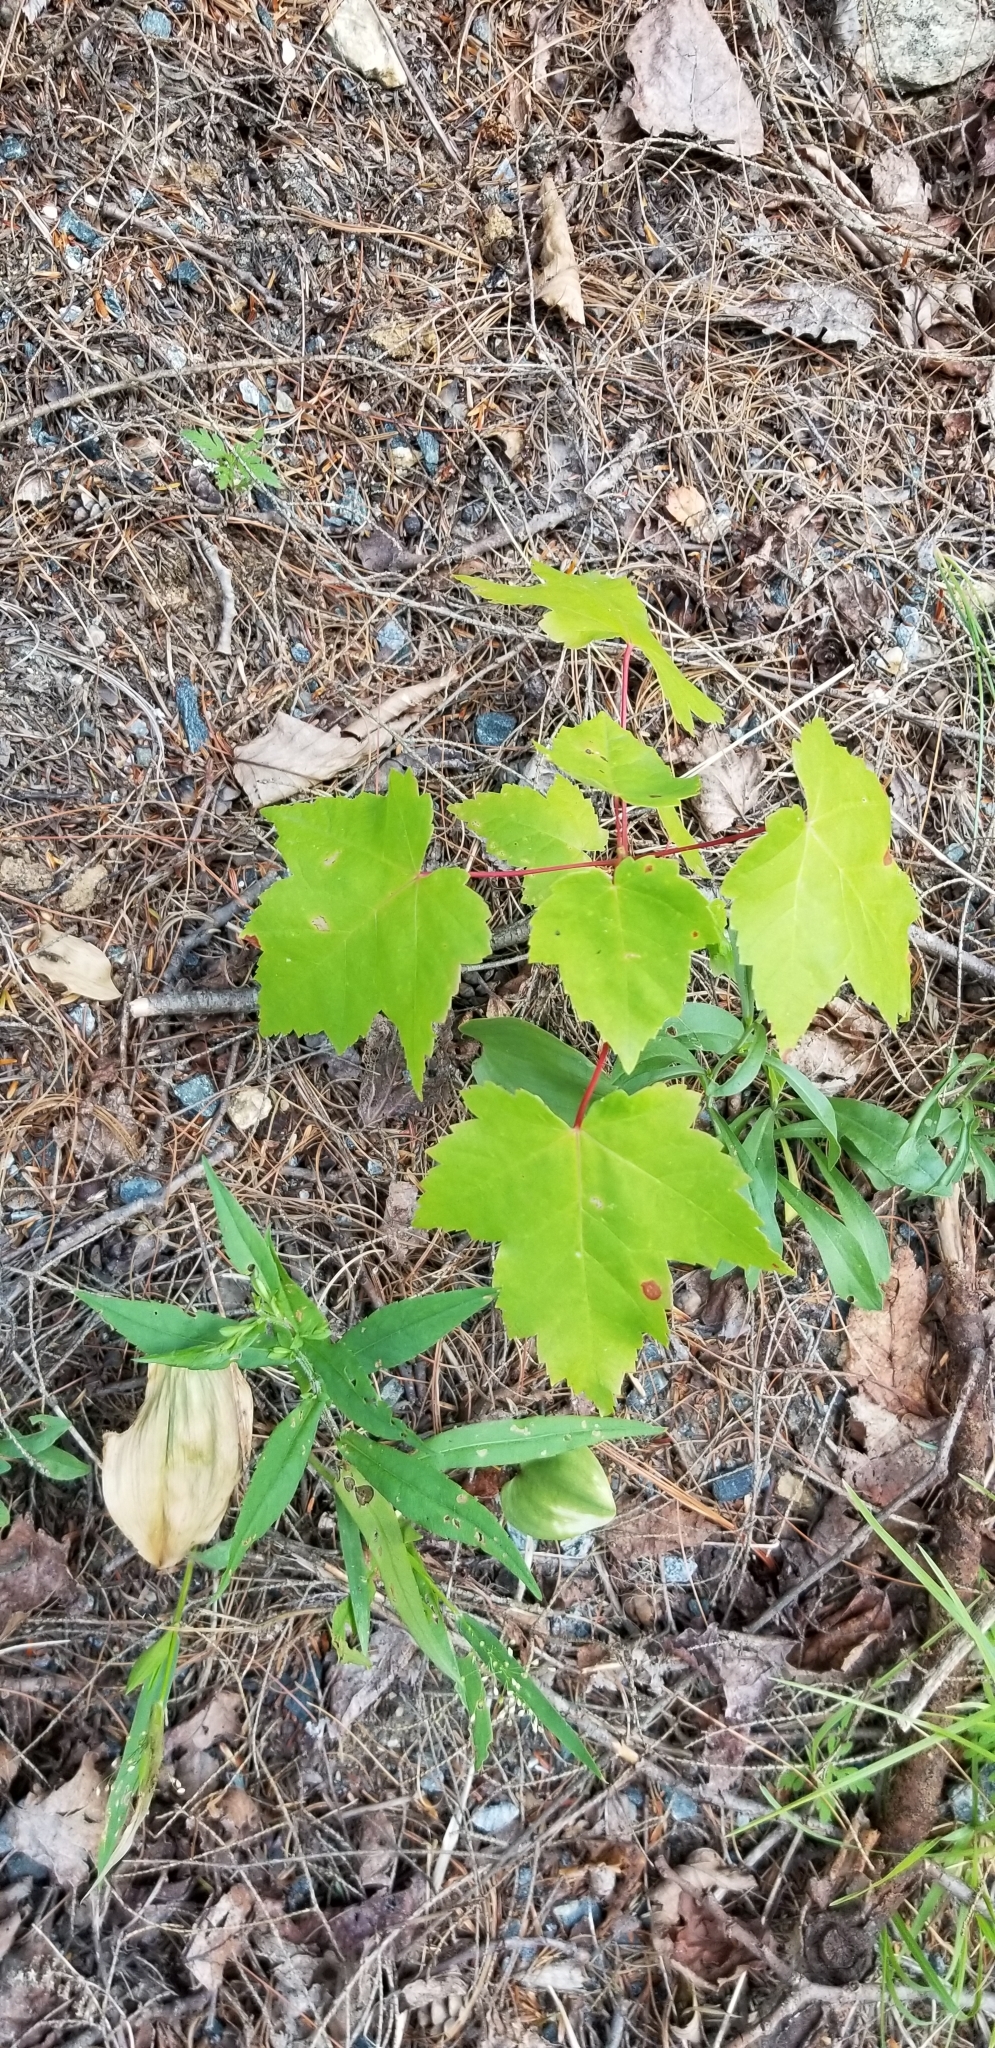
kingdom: Plantae
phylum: Tracheophyta
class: Magnoliopsida
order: Sapindales
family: Sapindaceae
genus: Acer
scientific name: Acer rubrum
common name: Red maple
